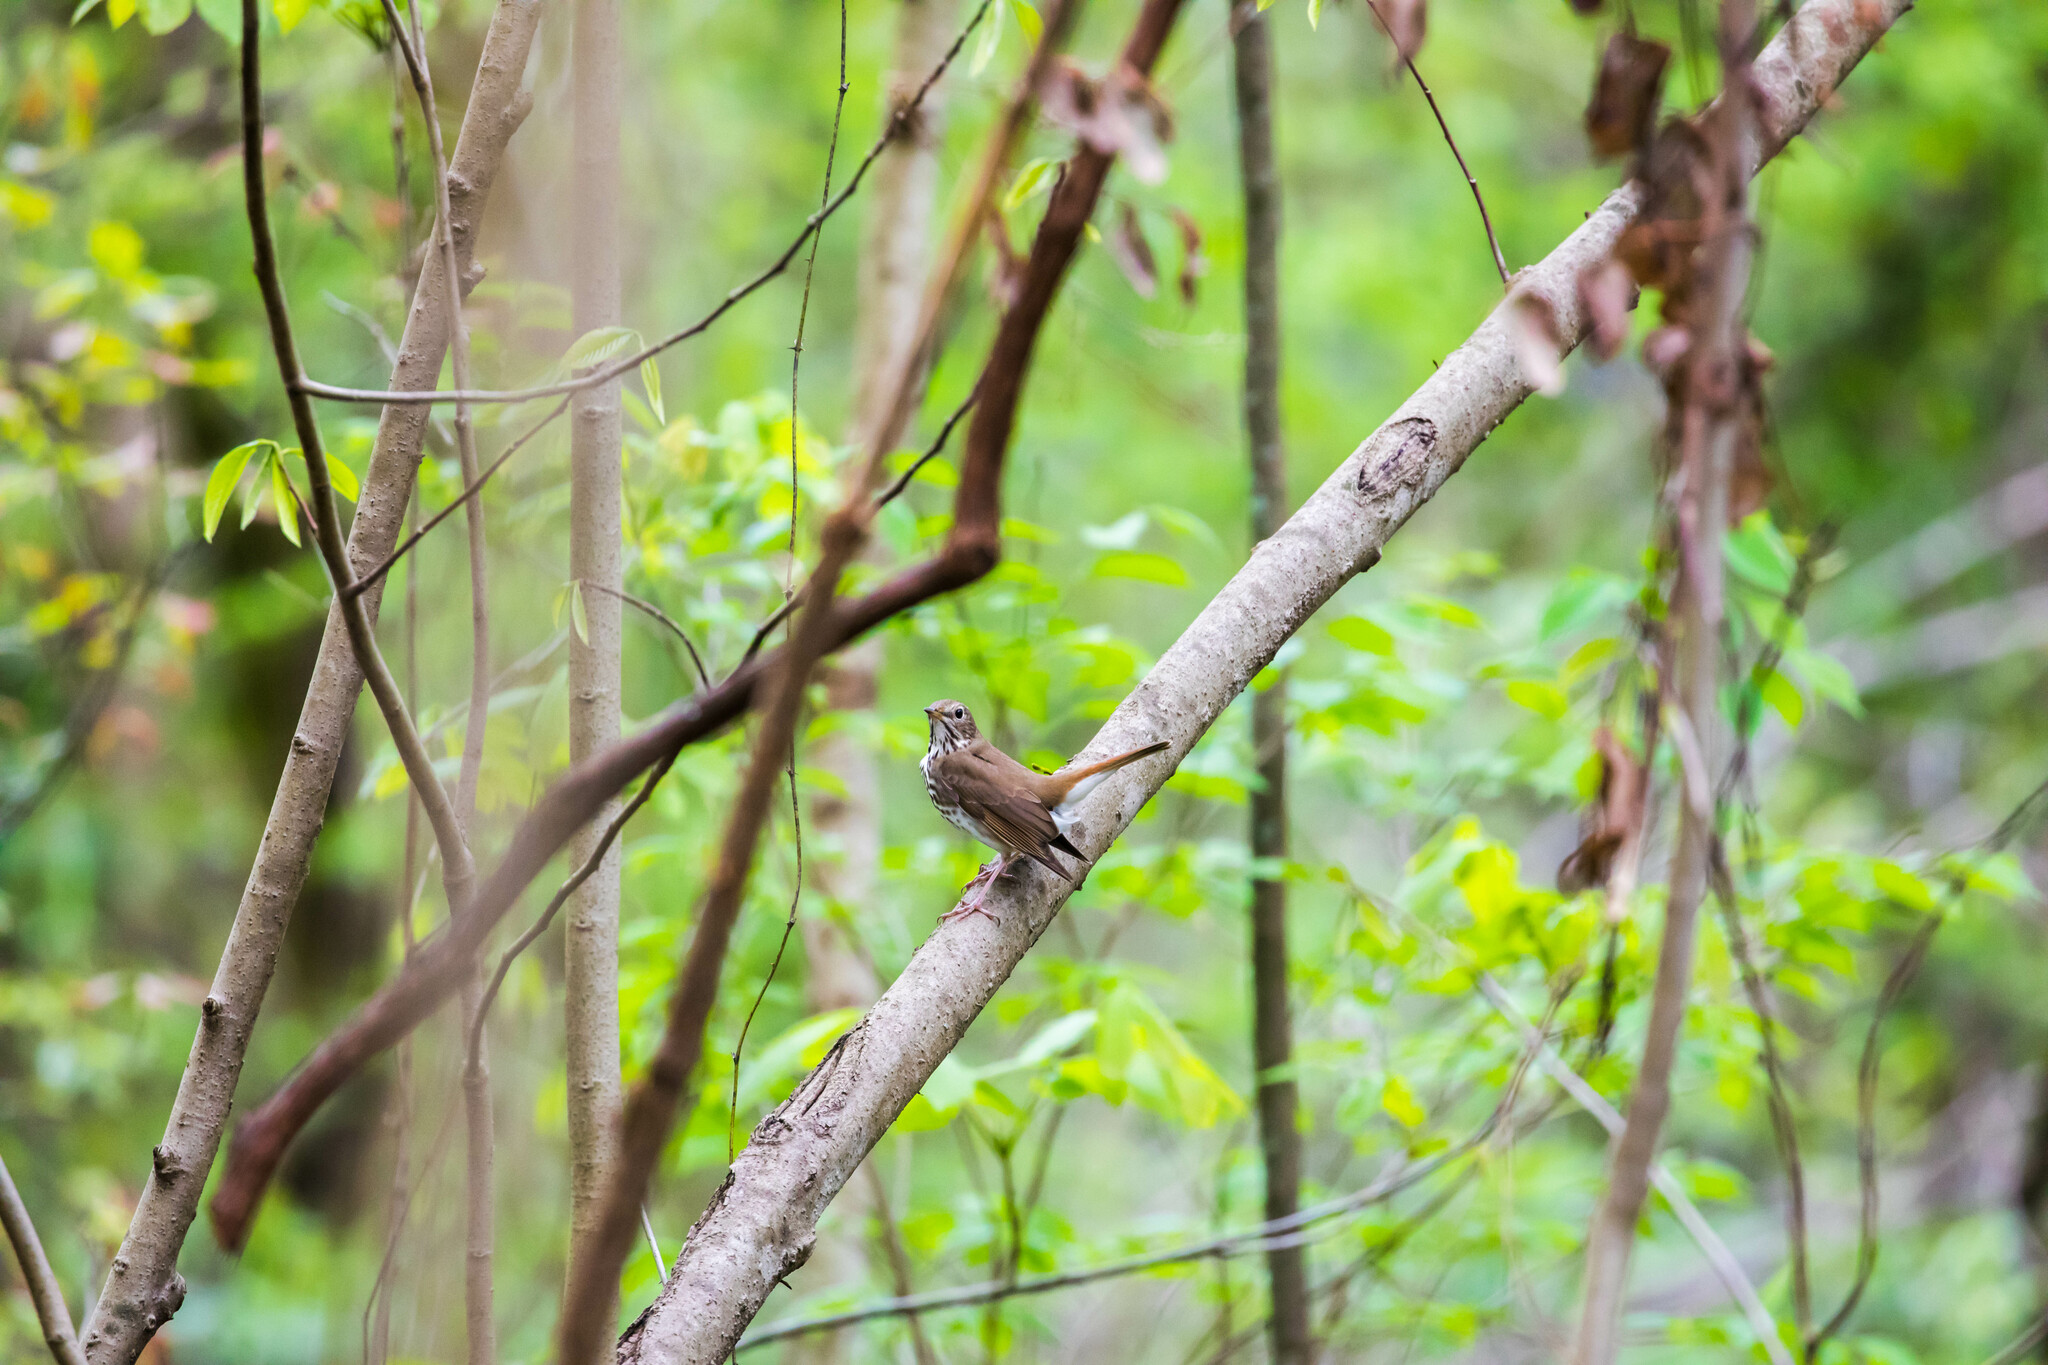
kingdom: Animalia
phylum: Chordata
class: Aves
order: Passeriformes
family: Turdidae
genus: Catharus
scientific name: Catharus guttatus
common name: Hermit thrush
